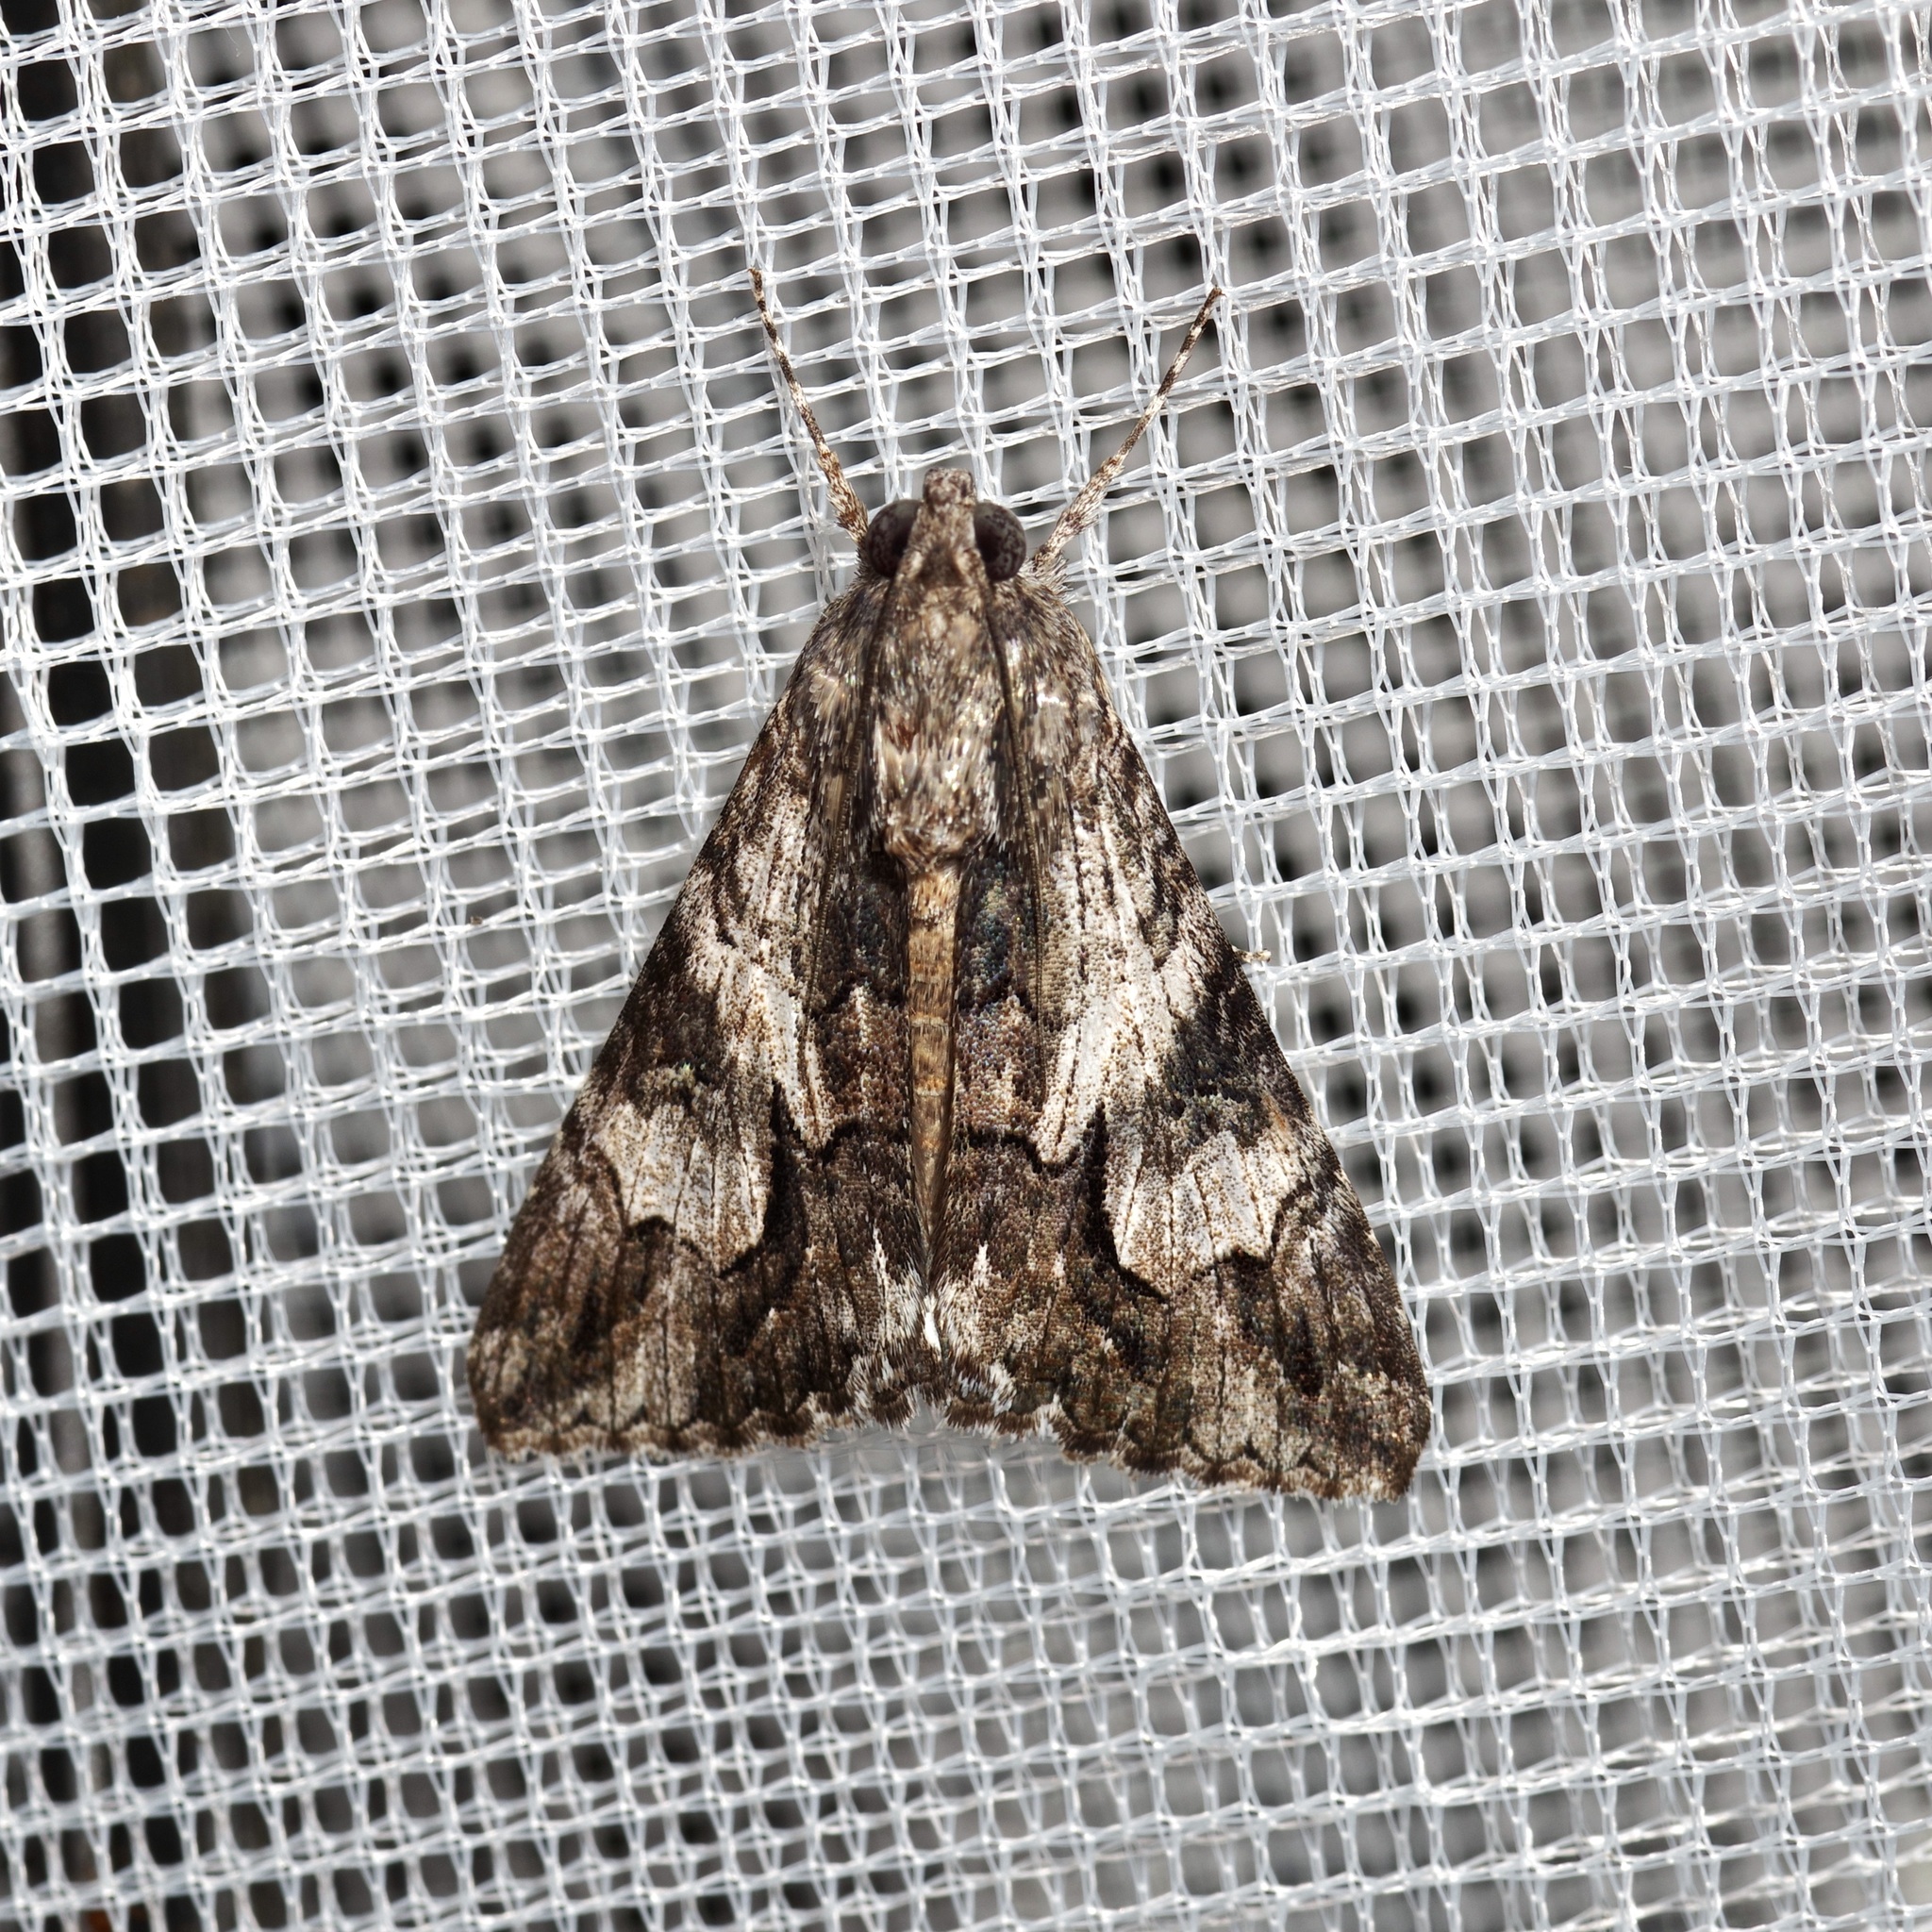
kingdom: Animalia
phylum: Arthropoda
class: Insecta
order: Lepidoptera
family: Erebidae
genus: Melipotis
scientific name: Melipotis jucunda
